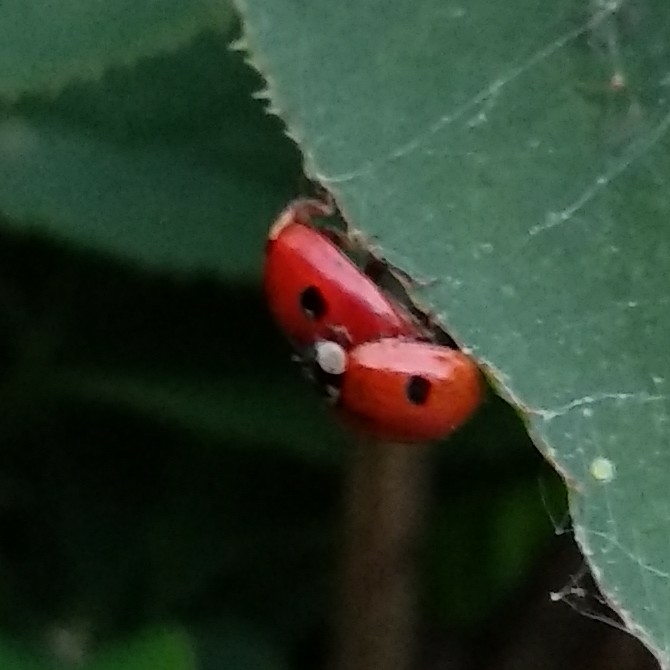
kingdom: Animalia
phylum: Arthropoda
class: Insecta
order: Coleoptera
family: Coccinellidae
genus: Adalia
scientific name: Adalia bipunctata
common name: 2-spot ladybird
